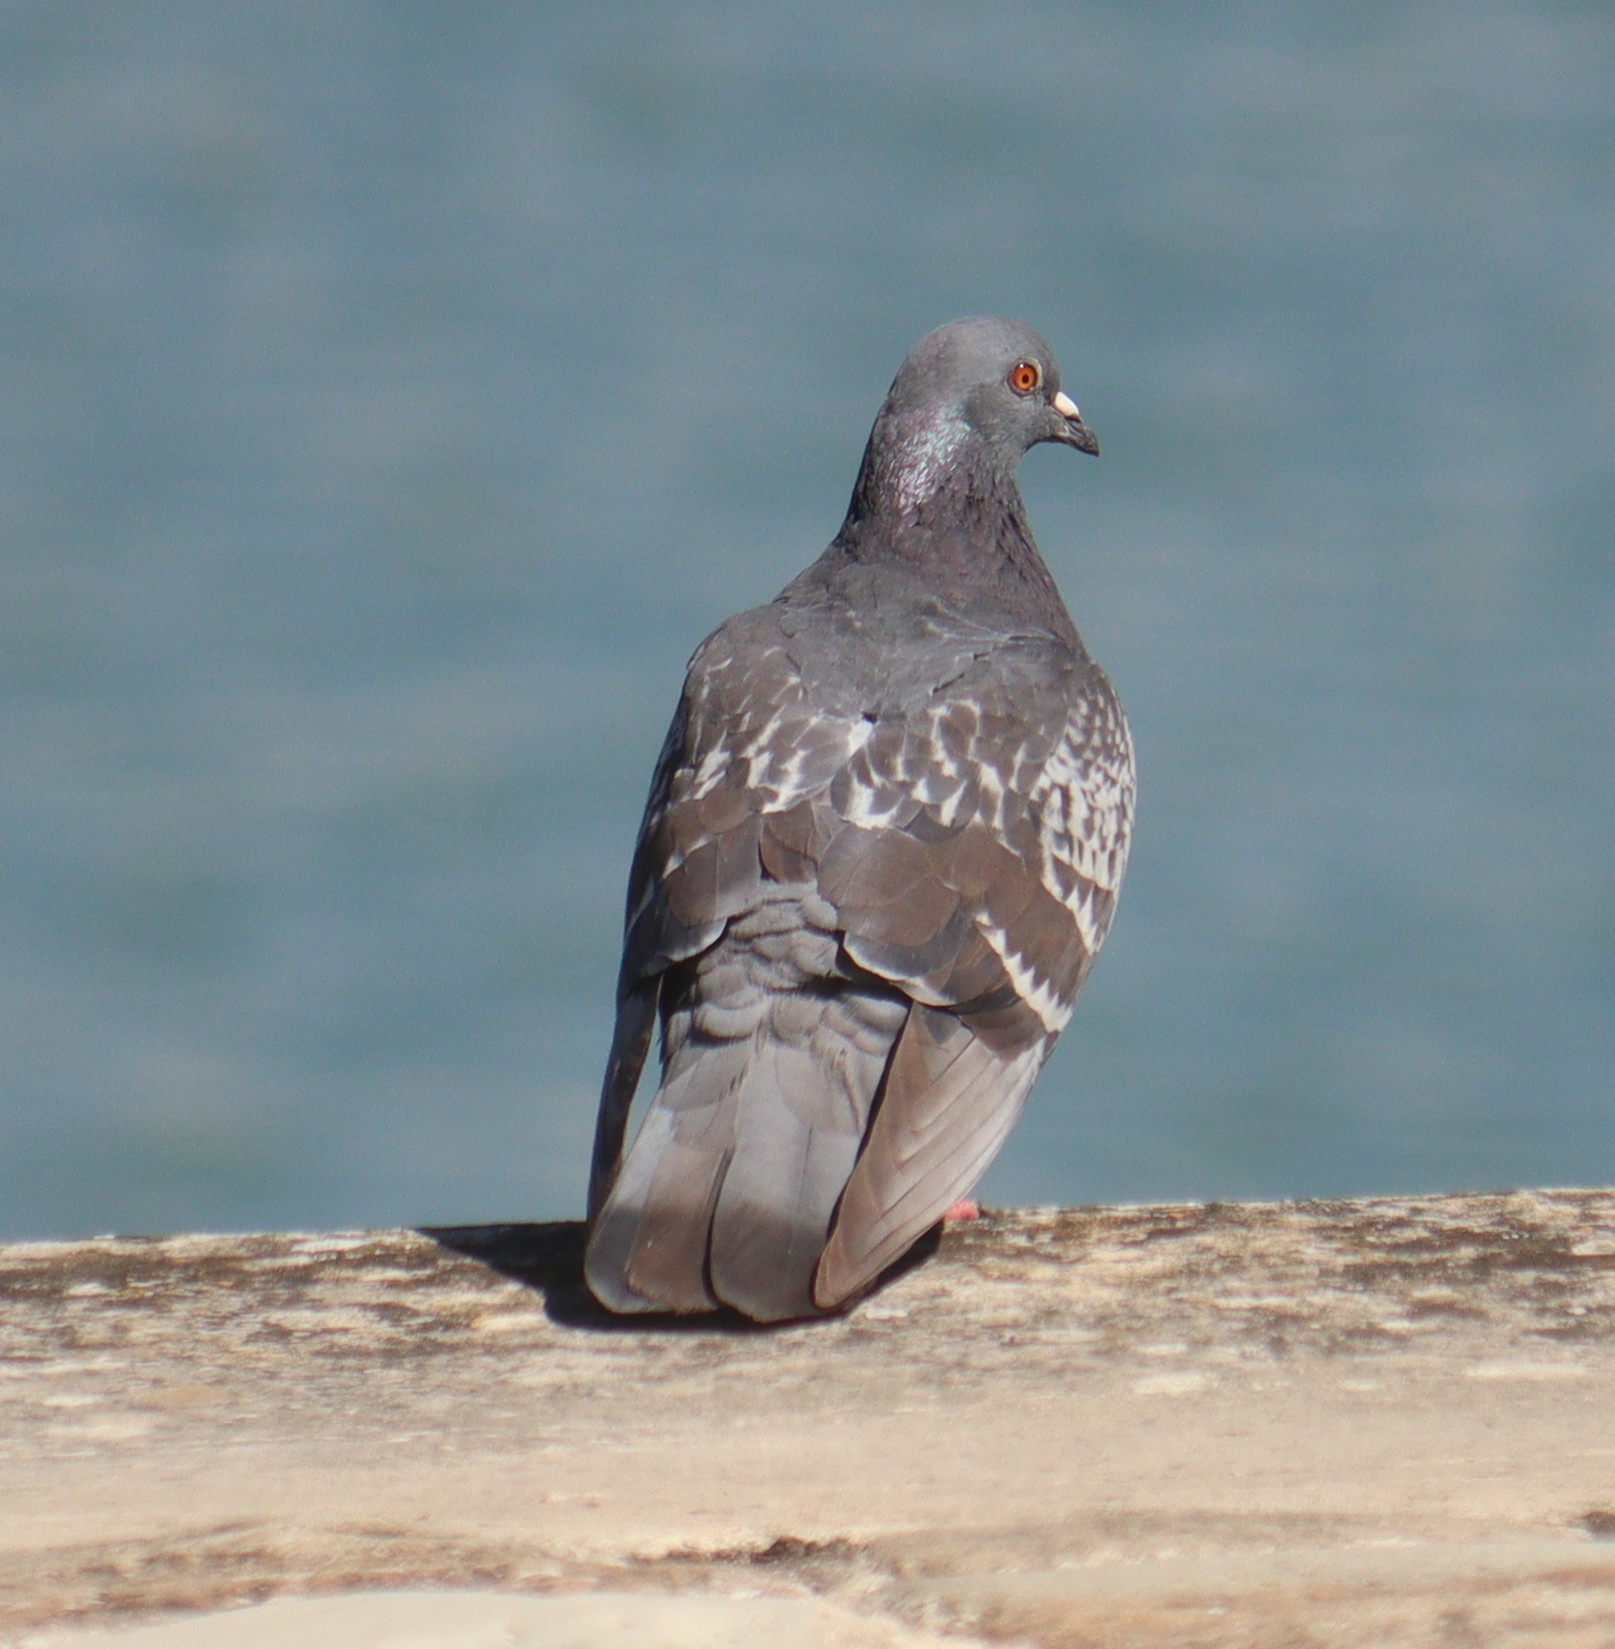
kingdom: Animalia
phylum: Chordata
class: Aves
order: Columbiformes
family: Columbidae
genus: Columba
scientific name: Columba livia
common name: Rock pigeon
